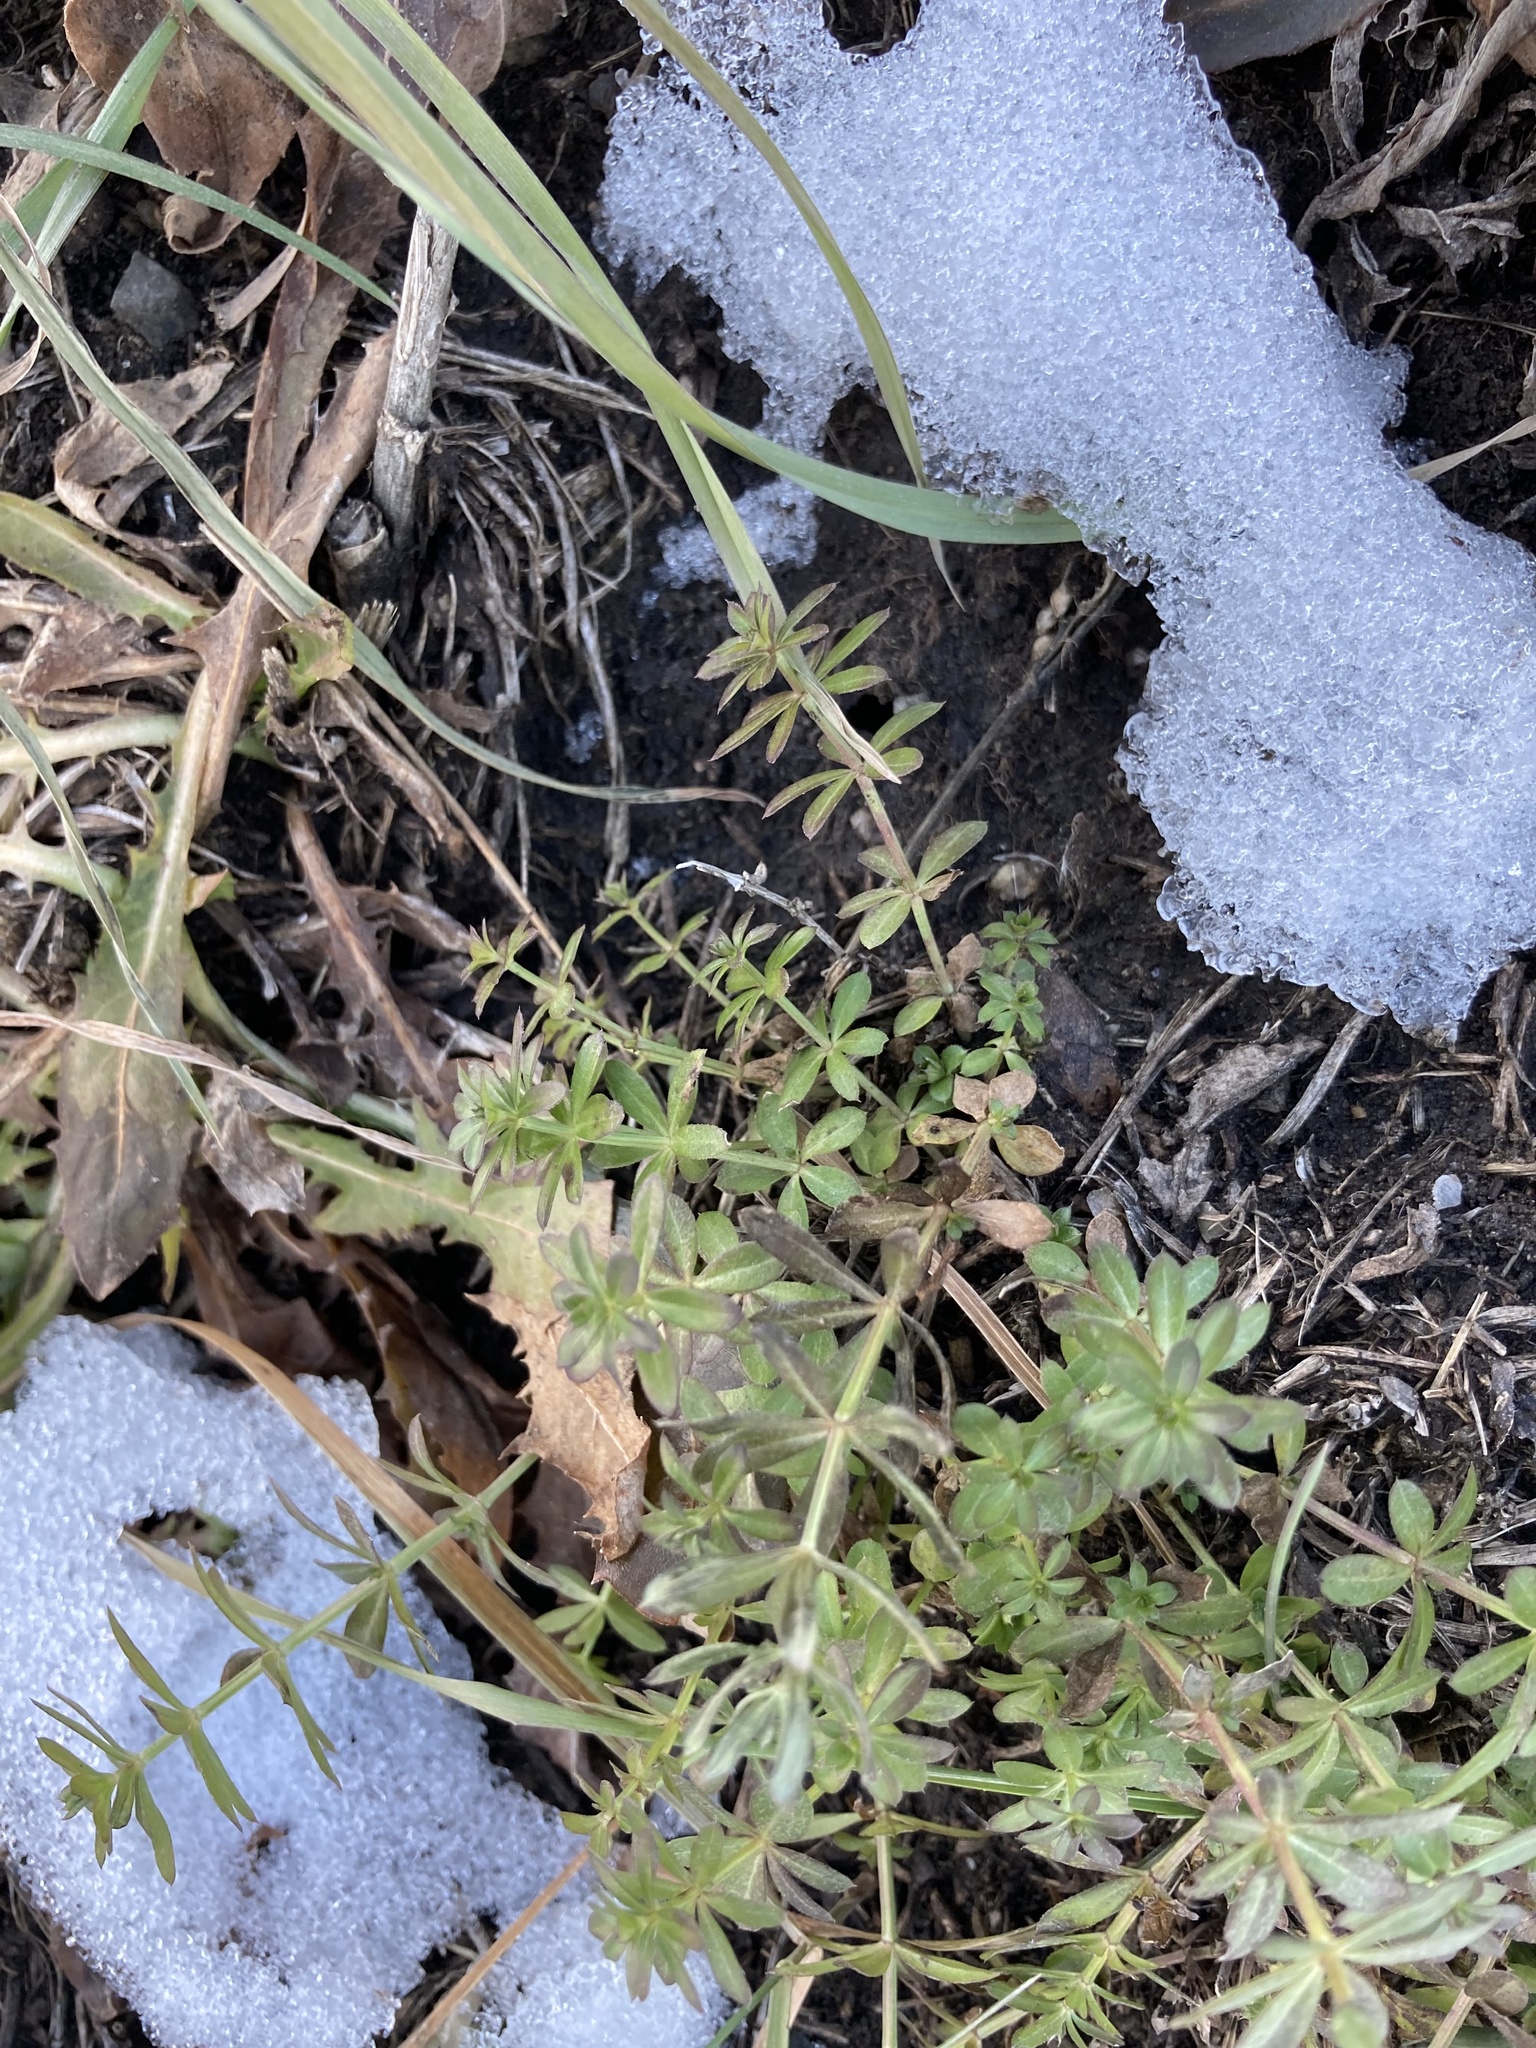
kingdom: Plantae
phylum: Tracheophyta
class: Magnoliopsida
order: Gentianales
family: Rubiaceae
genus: Galium
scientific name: Galium mollugo
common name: Hedge bedstraw
